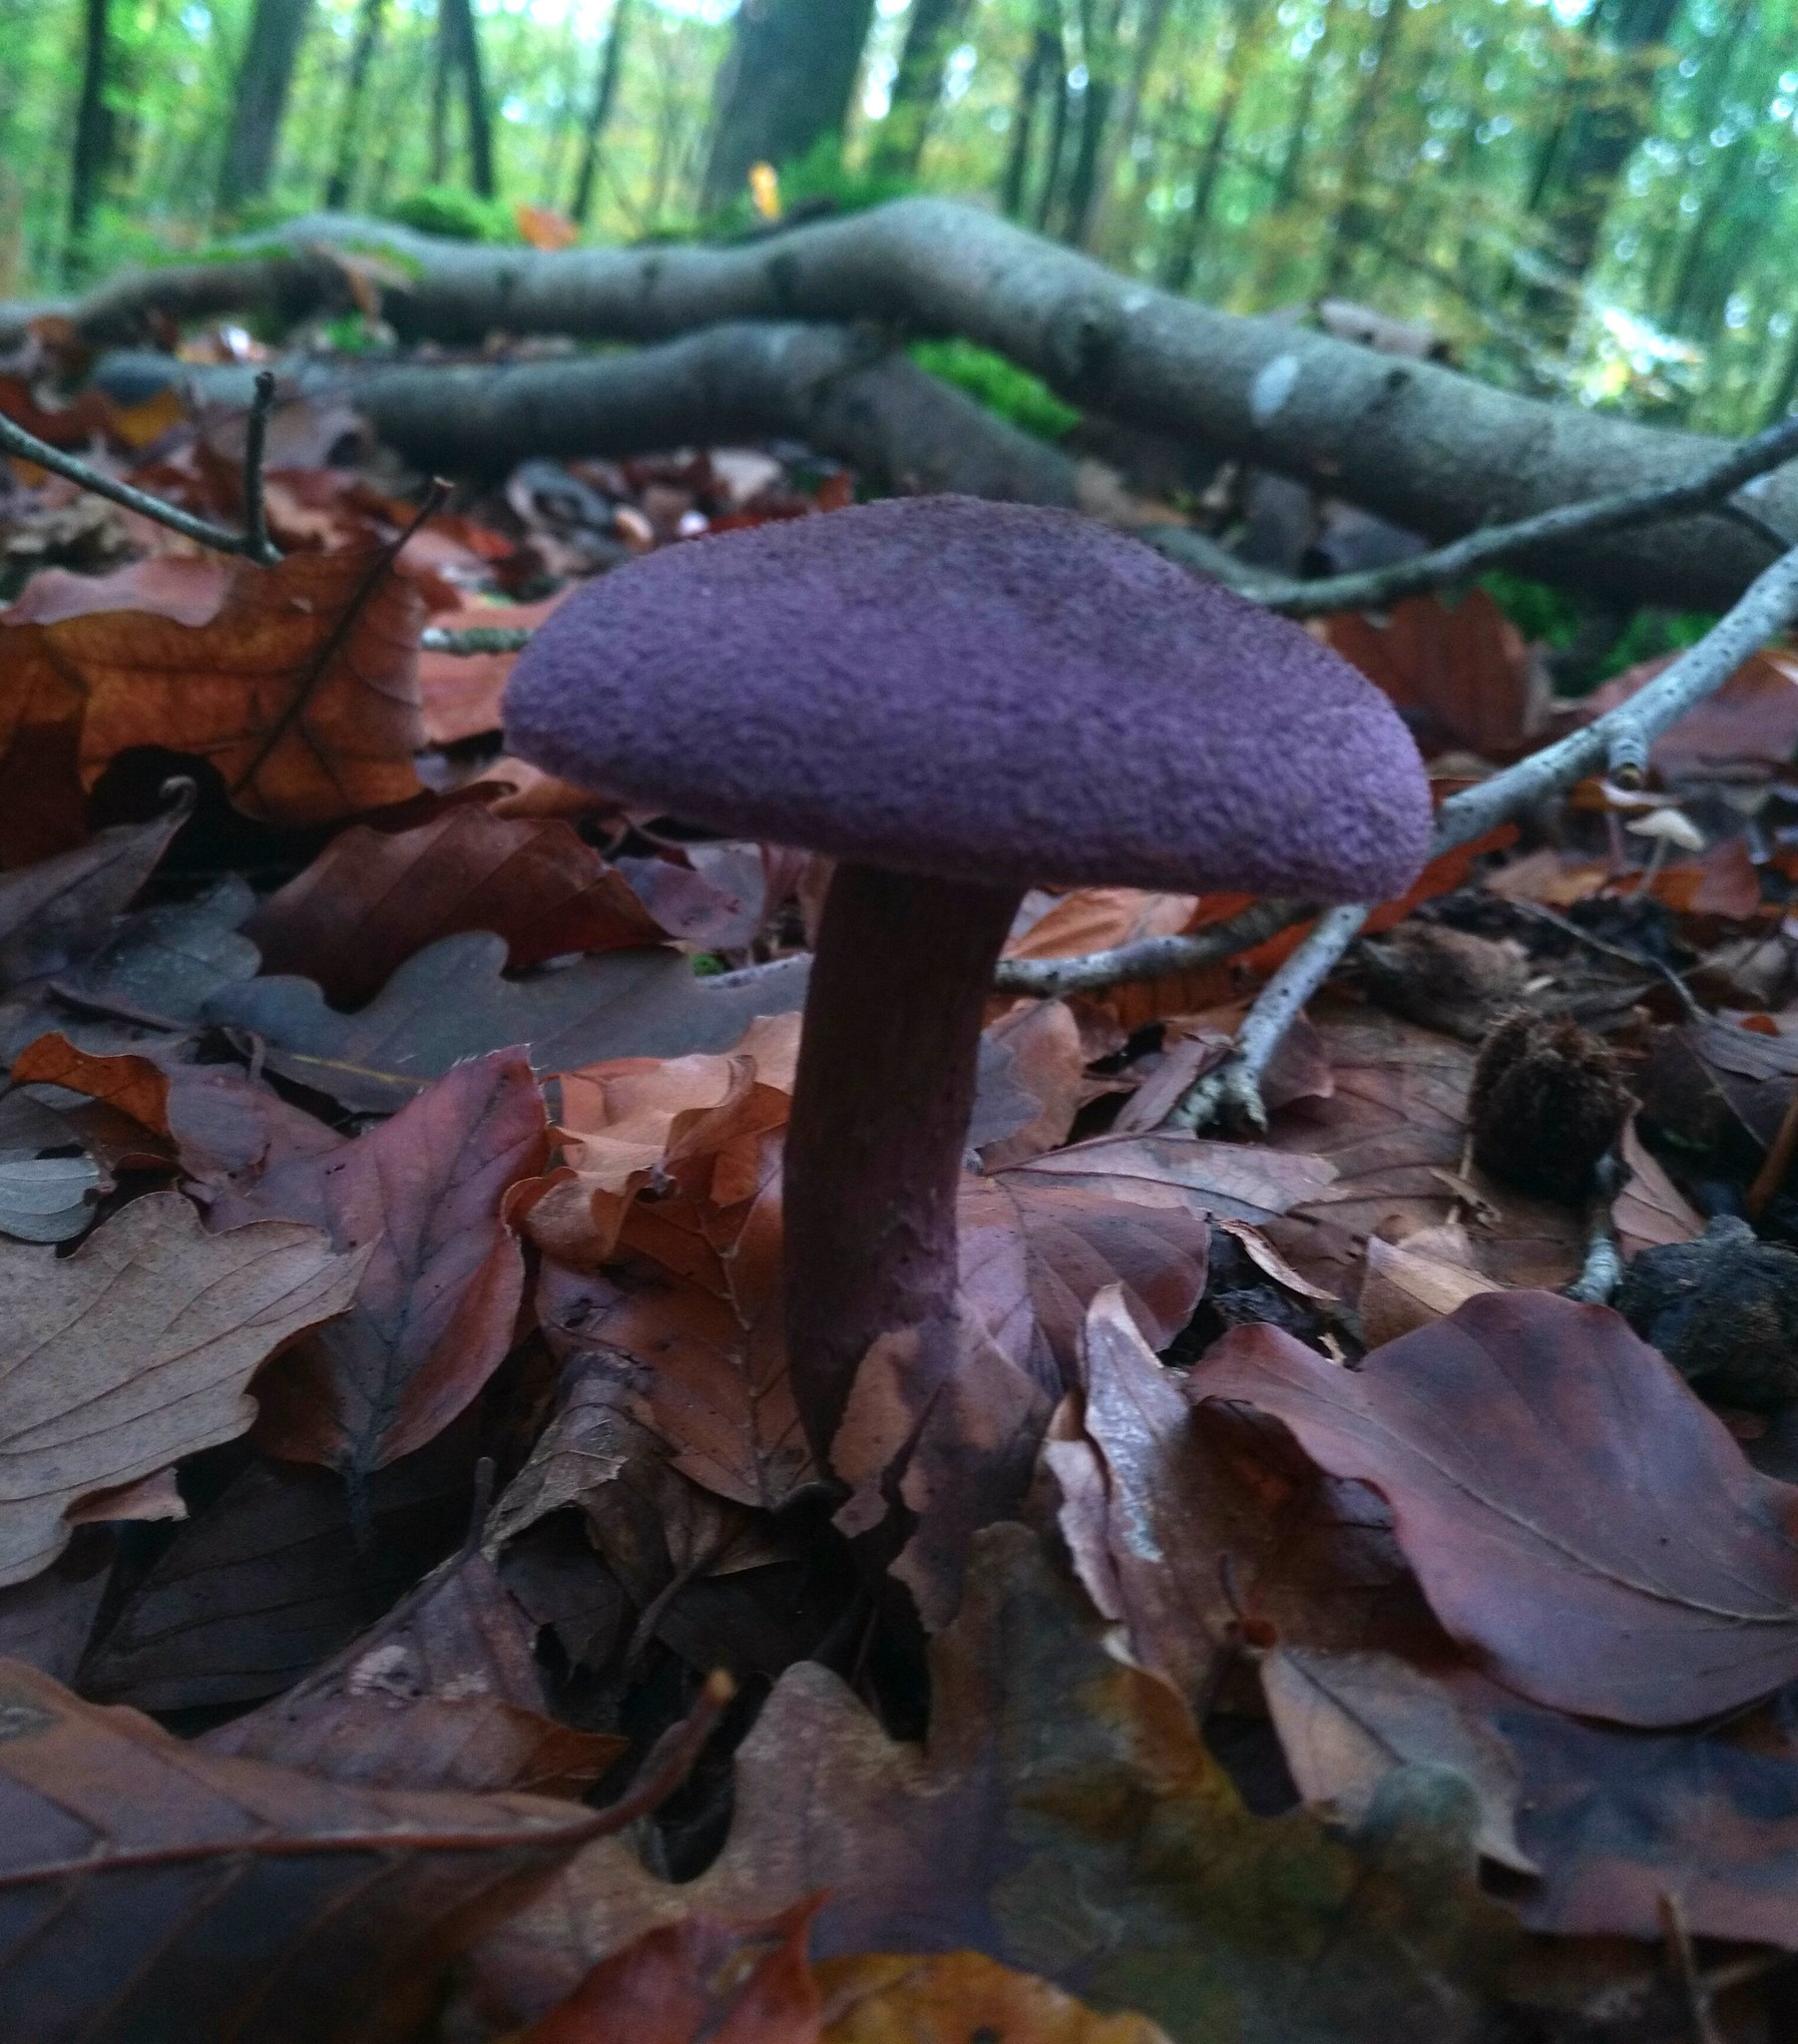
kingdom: Fungi
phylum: Basidiomycota
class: Agaricomycetes
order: Agaricales
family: Cortinariaceae
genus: Cortinarius
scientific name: Cortinarius violaceus
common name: Violet webcap
